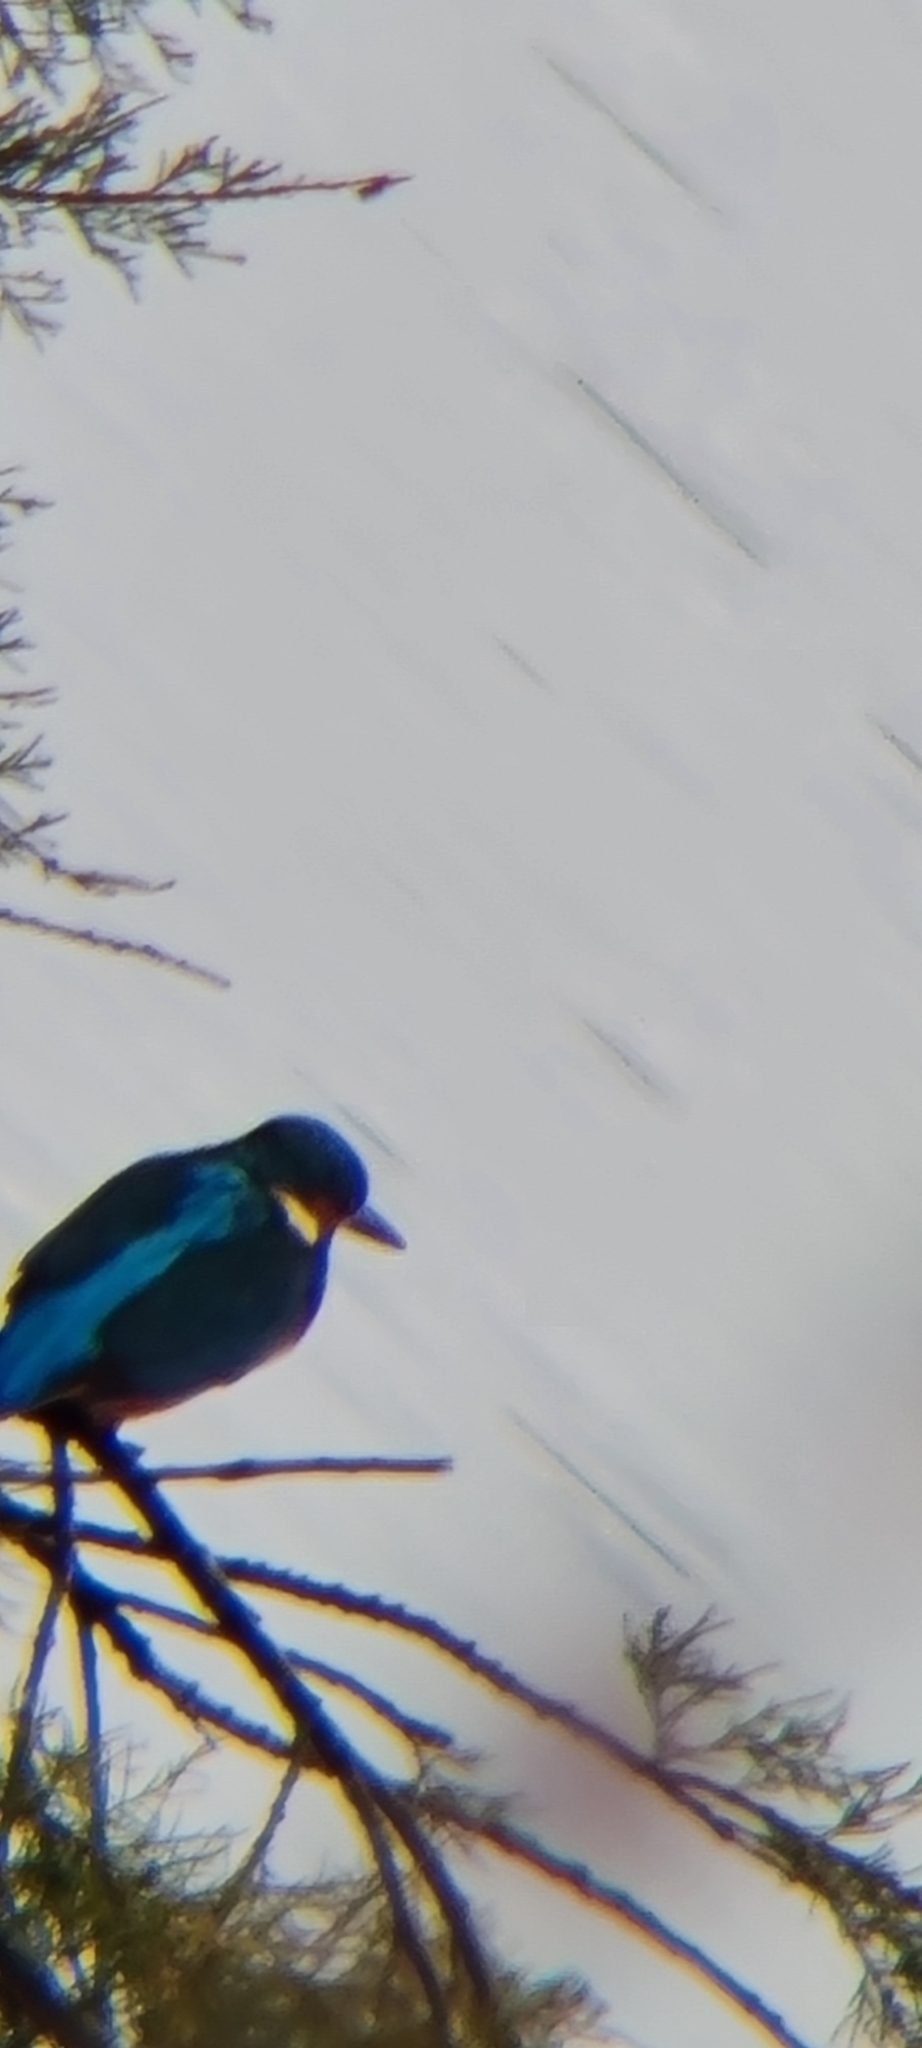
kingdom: Animalia
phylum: Chordata
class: Aves
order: Coraciiformes
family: Alcedinidae
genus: Alcedo
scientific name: Alcedo atthis
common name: Common kingfisher
